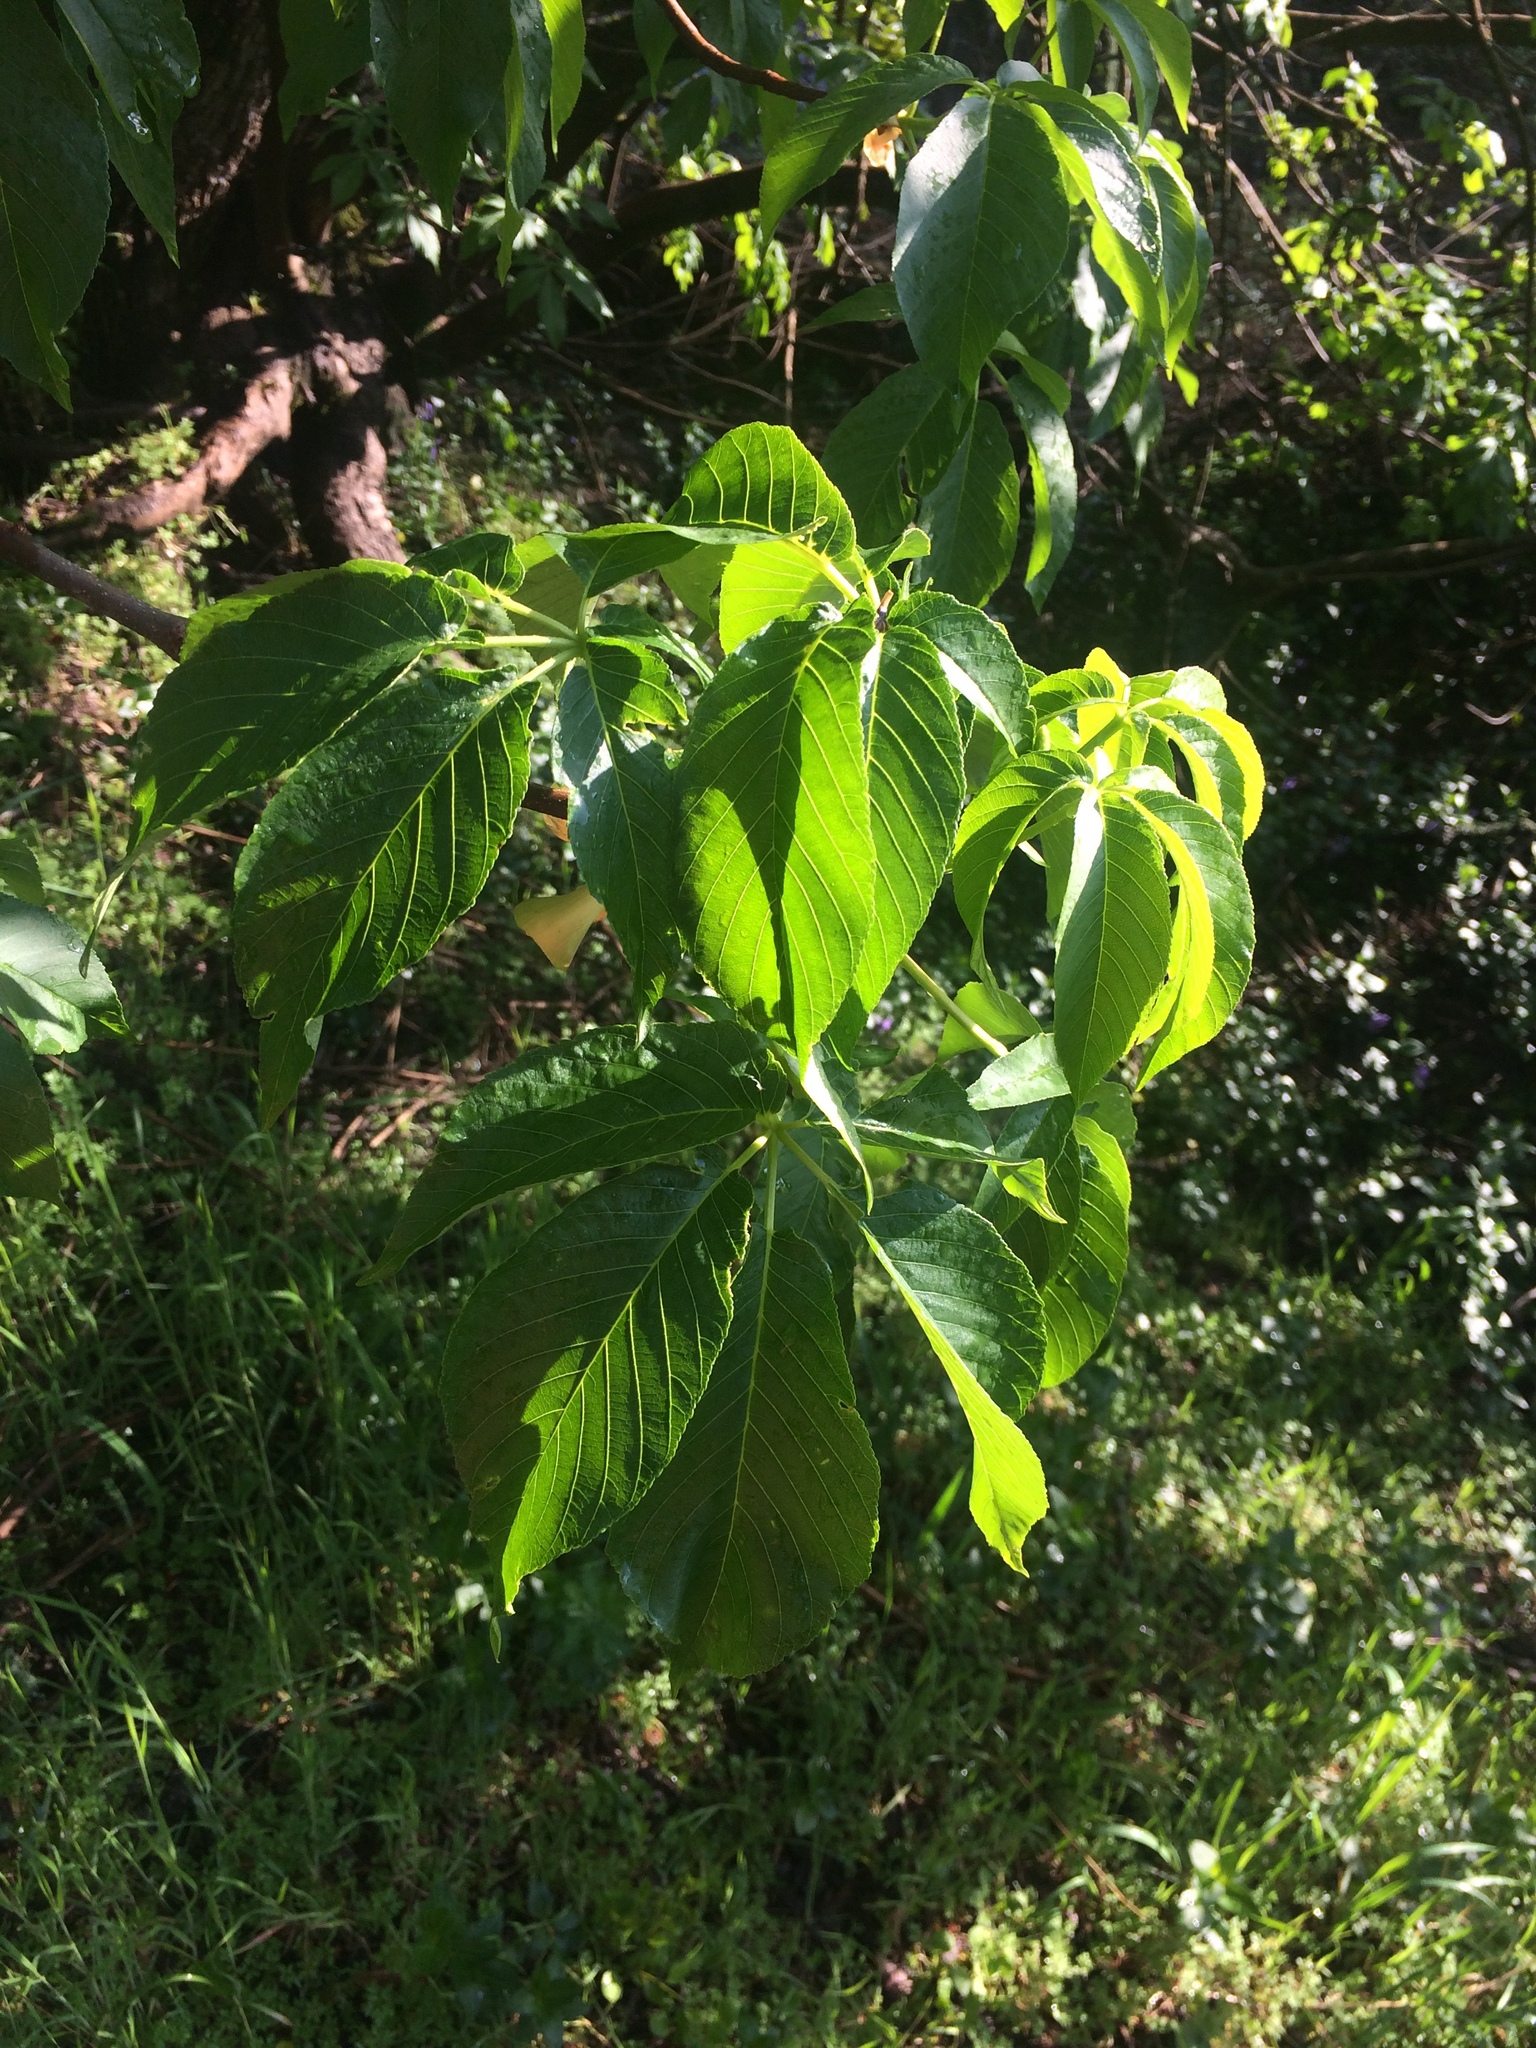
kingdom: Plantae
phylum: Tracheophyta
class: Magnoliopsida
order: Sapindales
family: Sapindaceae
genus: Aesculus
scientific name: Aesculus californica
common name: California buckeye
